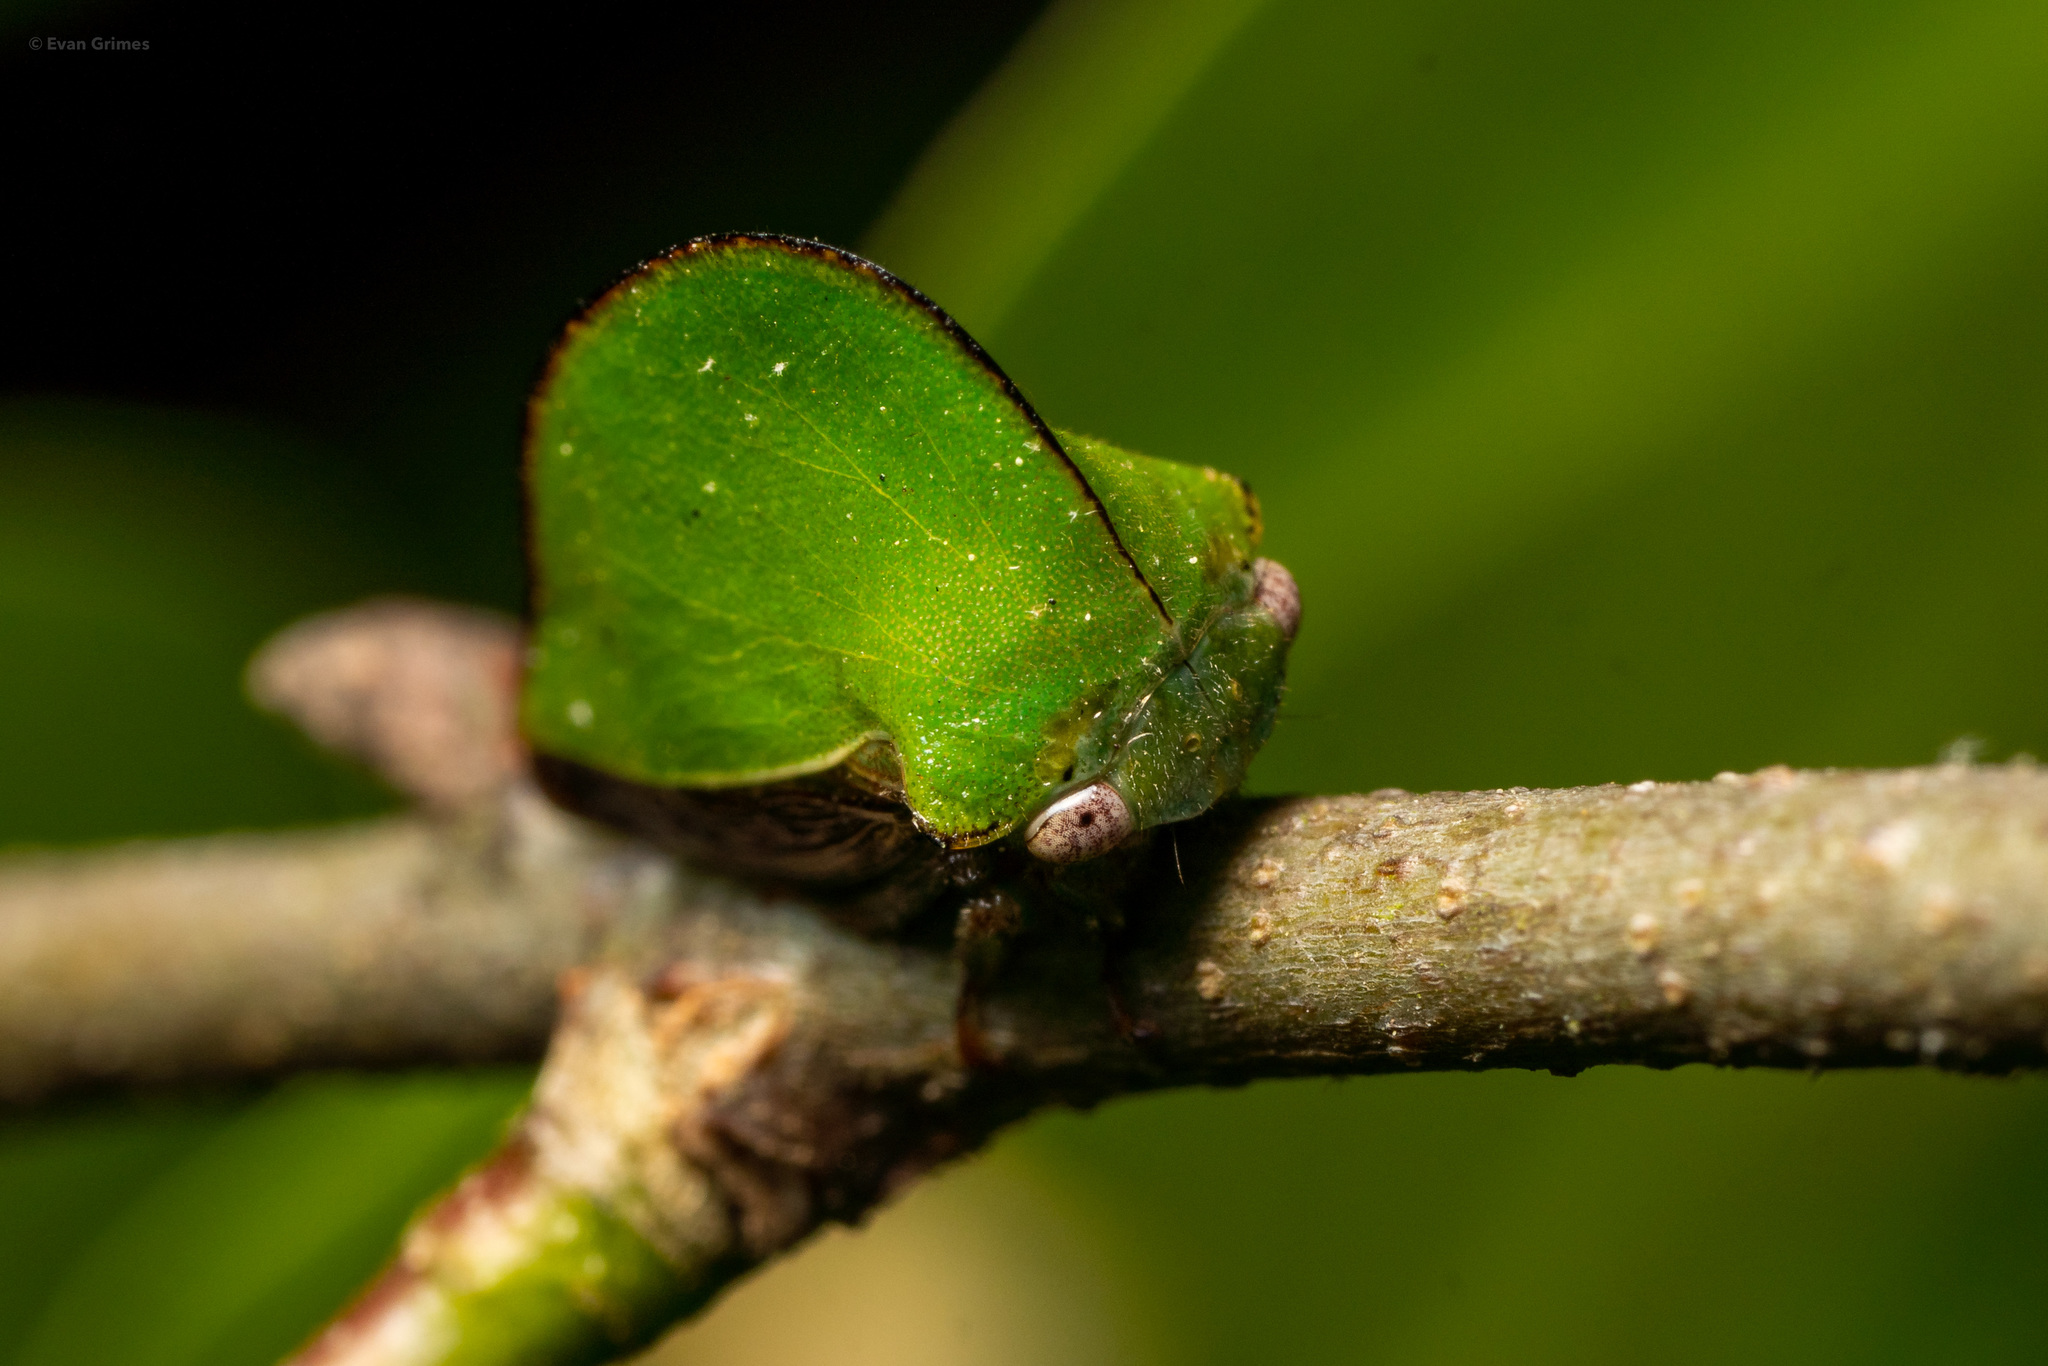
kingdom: Animalia
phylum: Arthropoda
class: Insecta
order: Hemiptera
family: Membracidae
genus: Archasia
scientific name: Archasia belfragei
